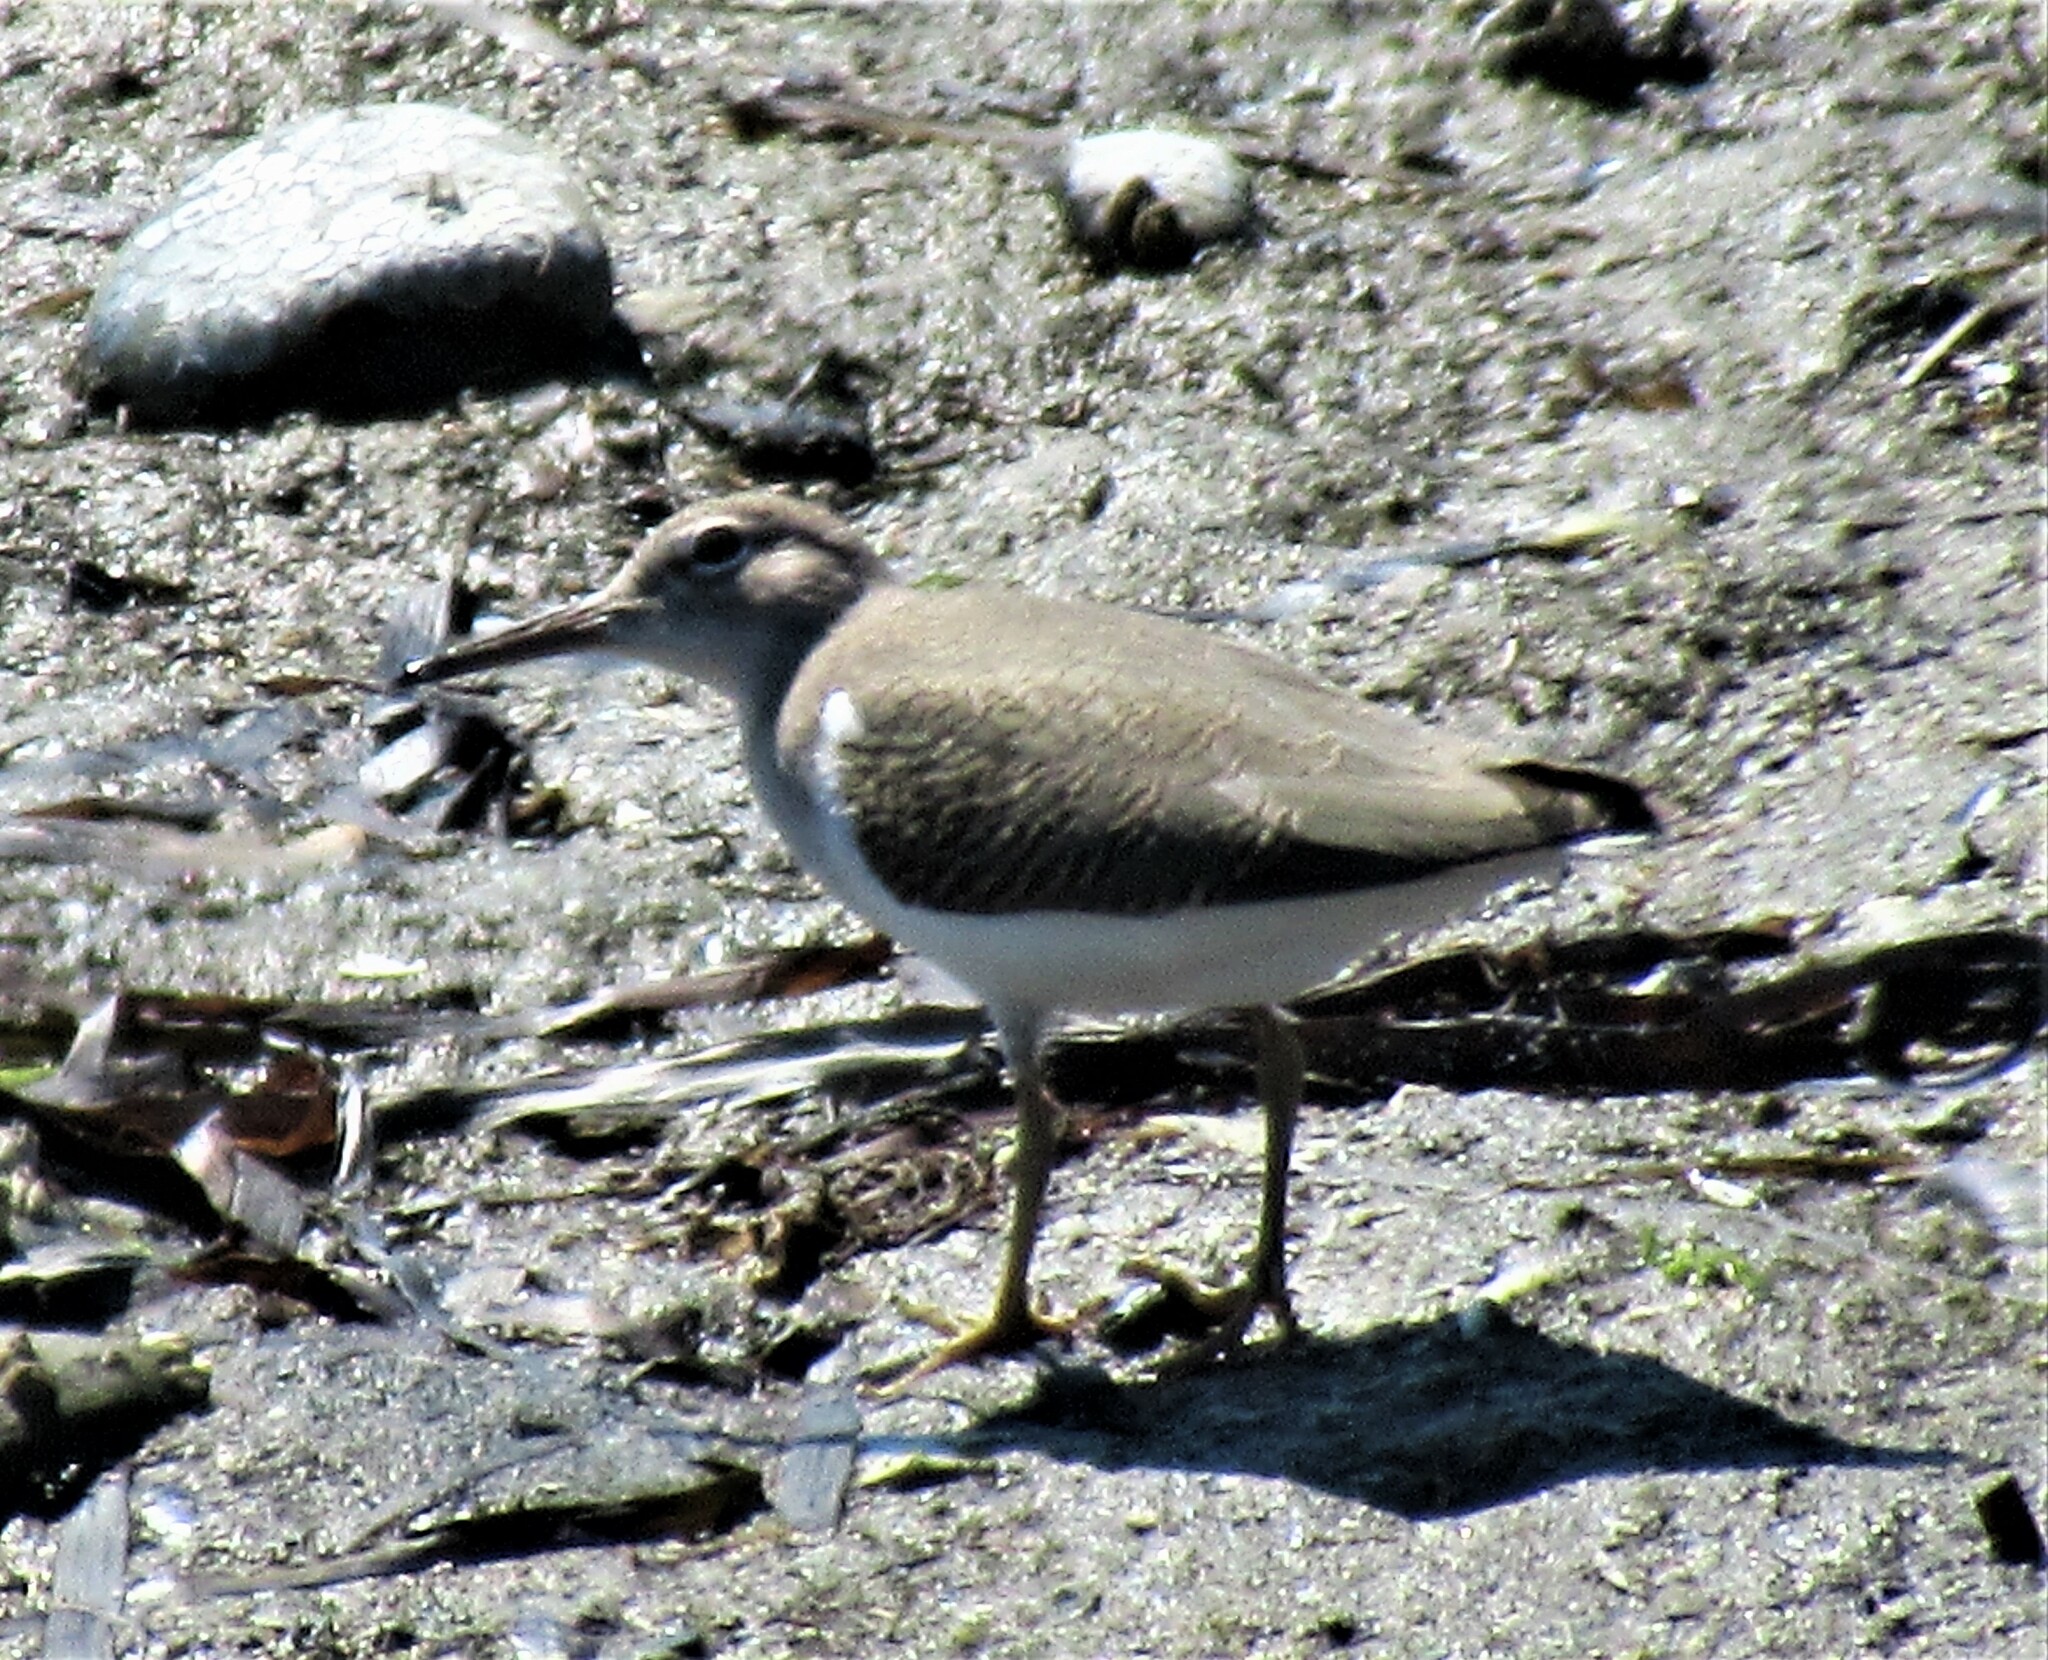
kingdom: Animalia
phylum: Chordata
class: Aves
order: Charadriiformes
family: Scolopacidae
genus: Actitis
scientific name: Actitis macularius
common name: Spotted sandpiper
